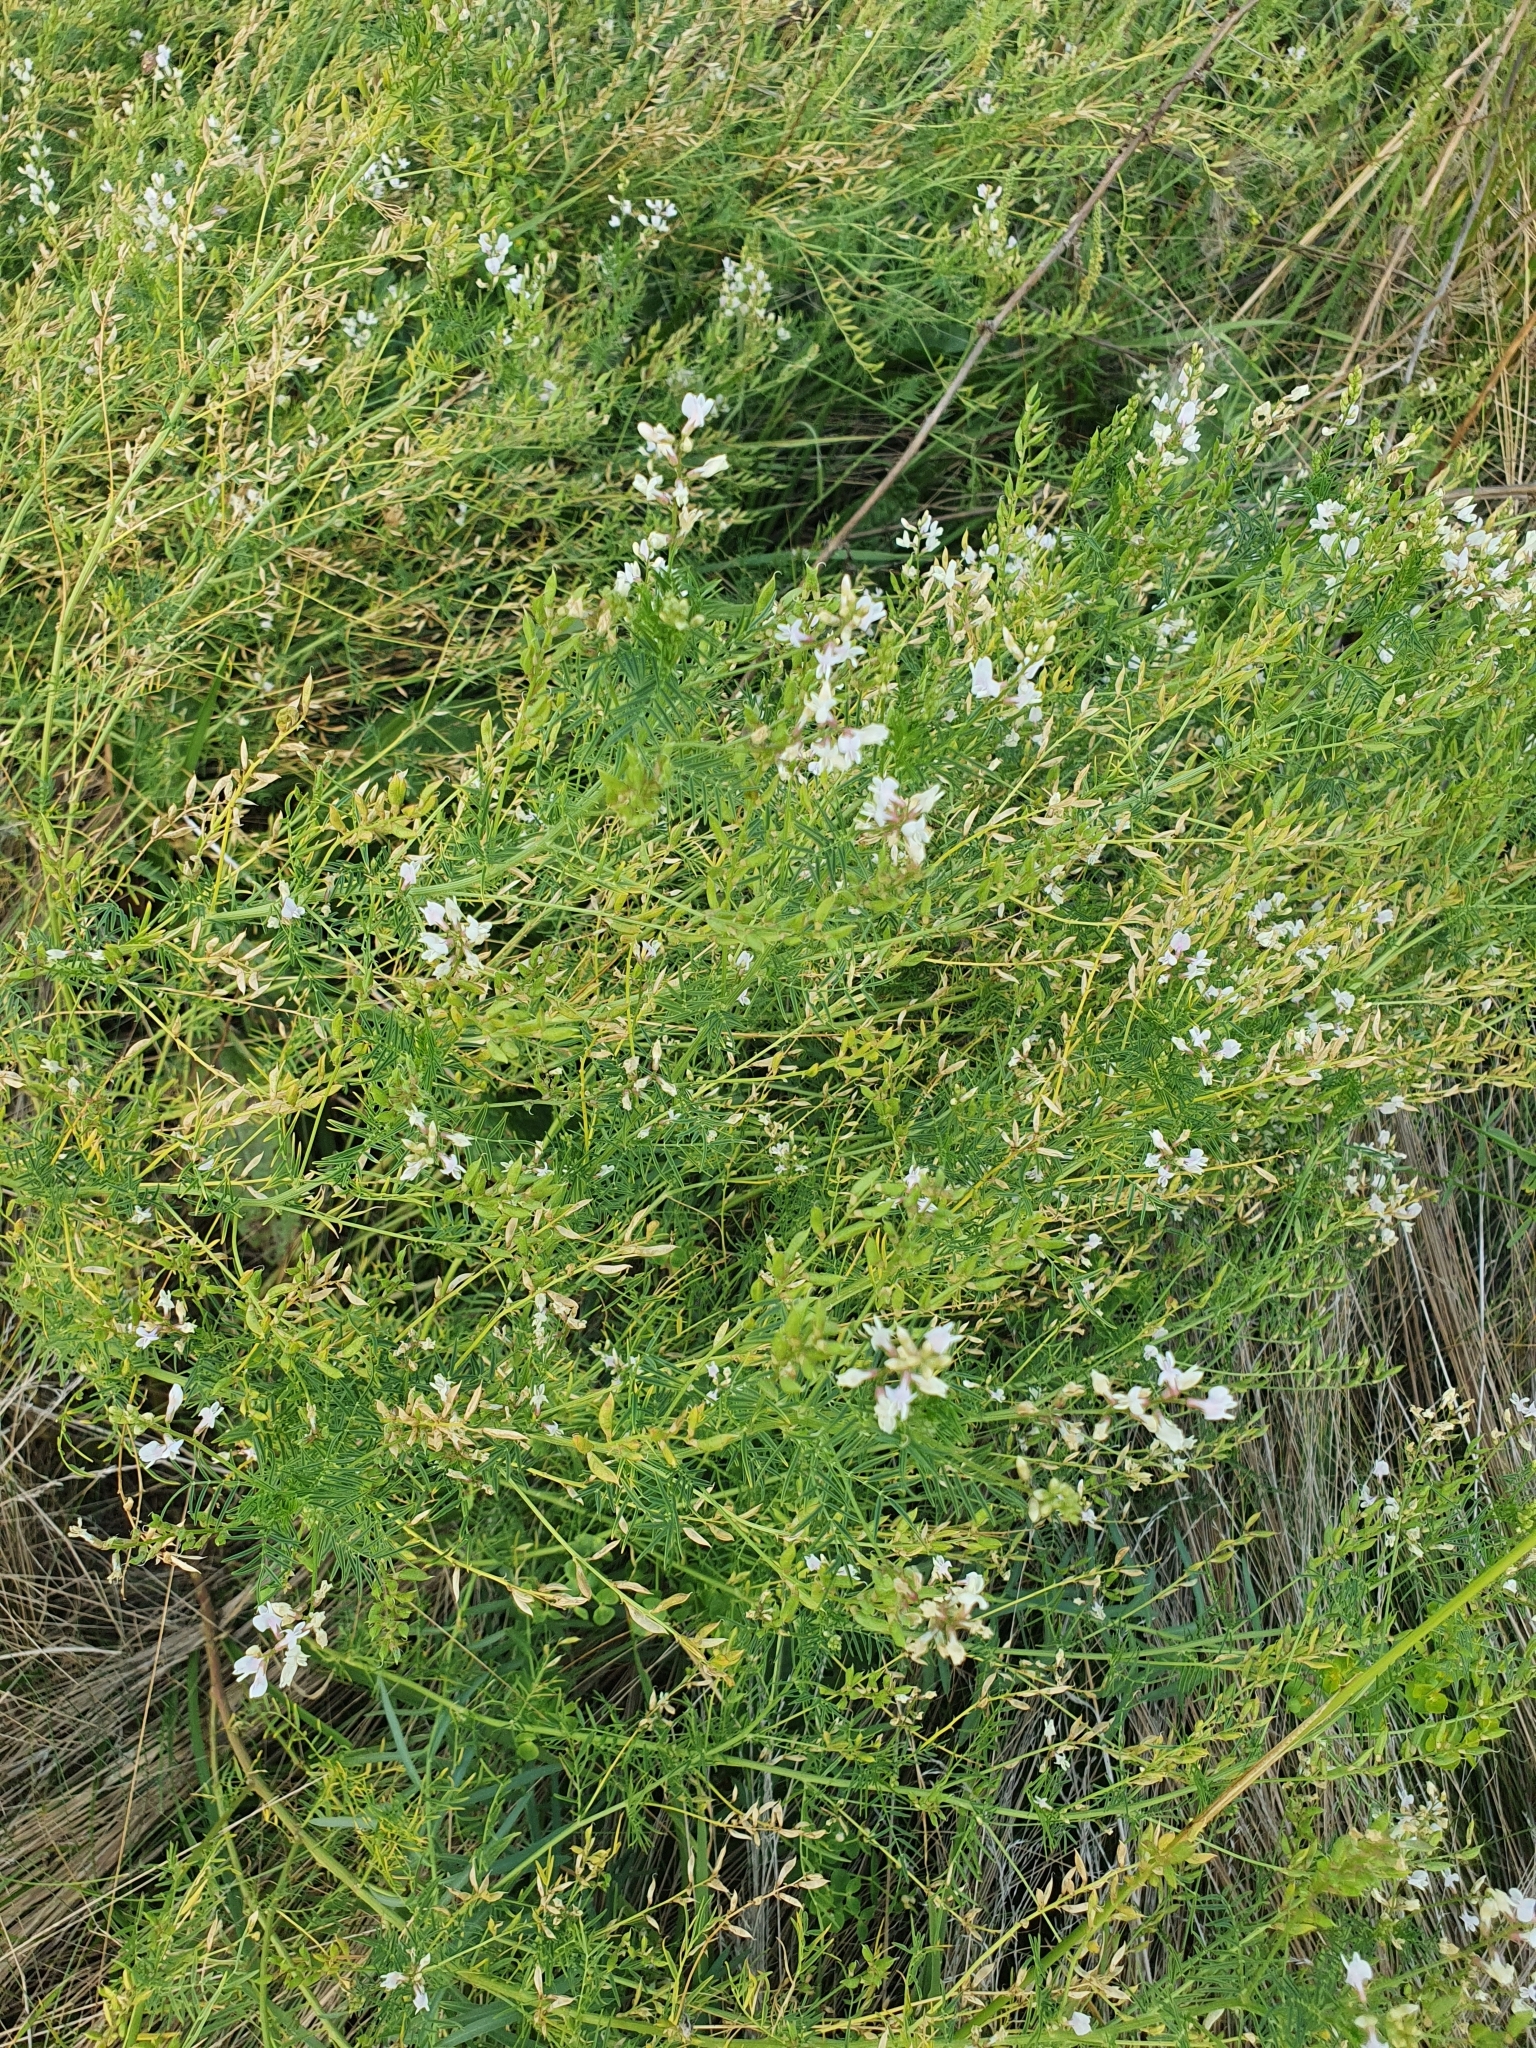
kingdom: Plantae
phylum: Tracheophyta
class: Magnoliopsida
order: Fabales
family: Fabaceae
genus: Astragalus
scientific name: Astragalus sulcatus
